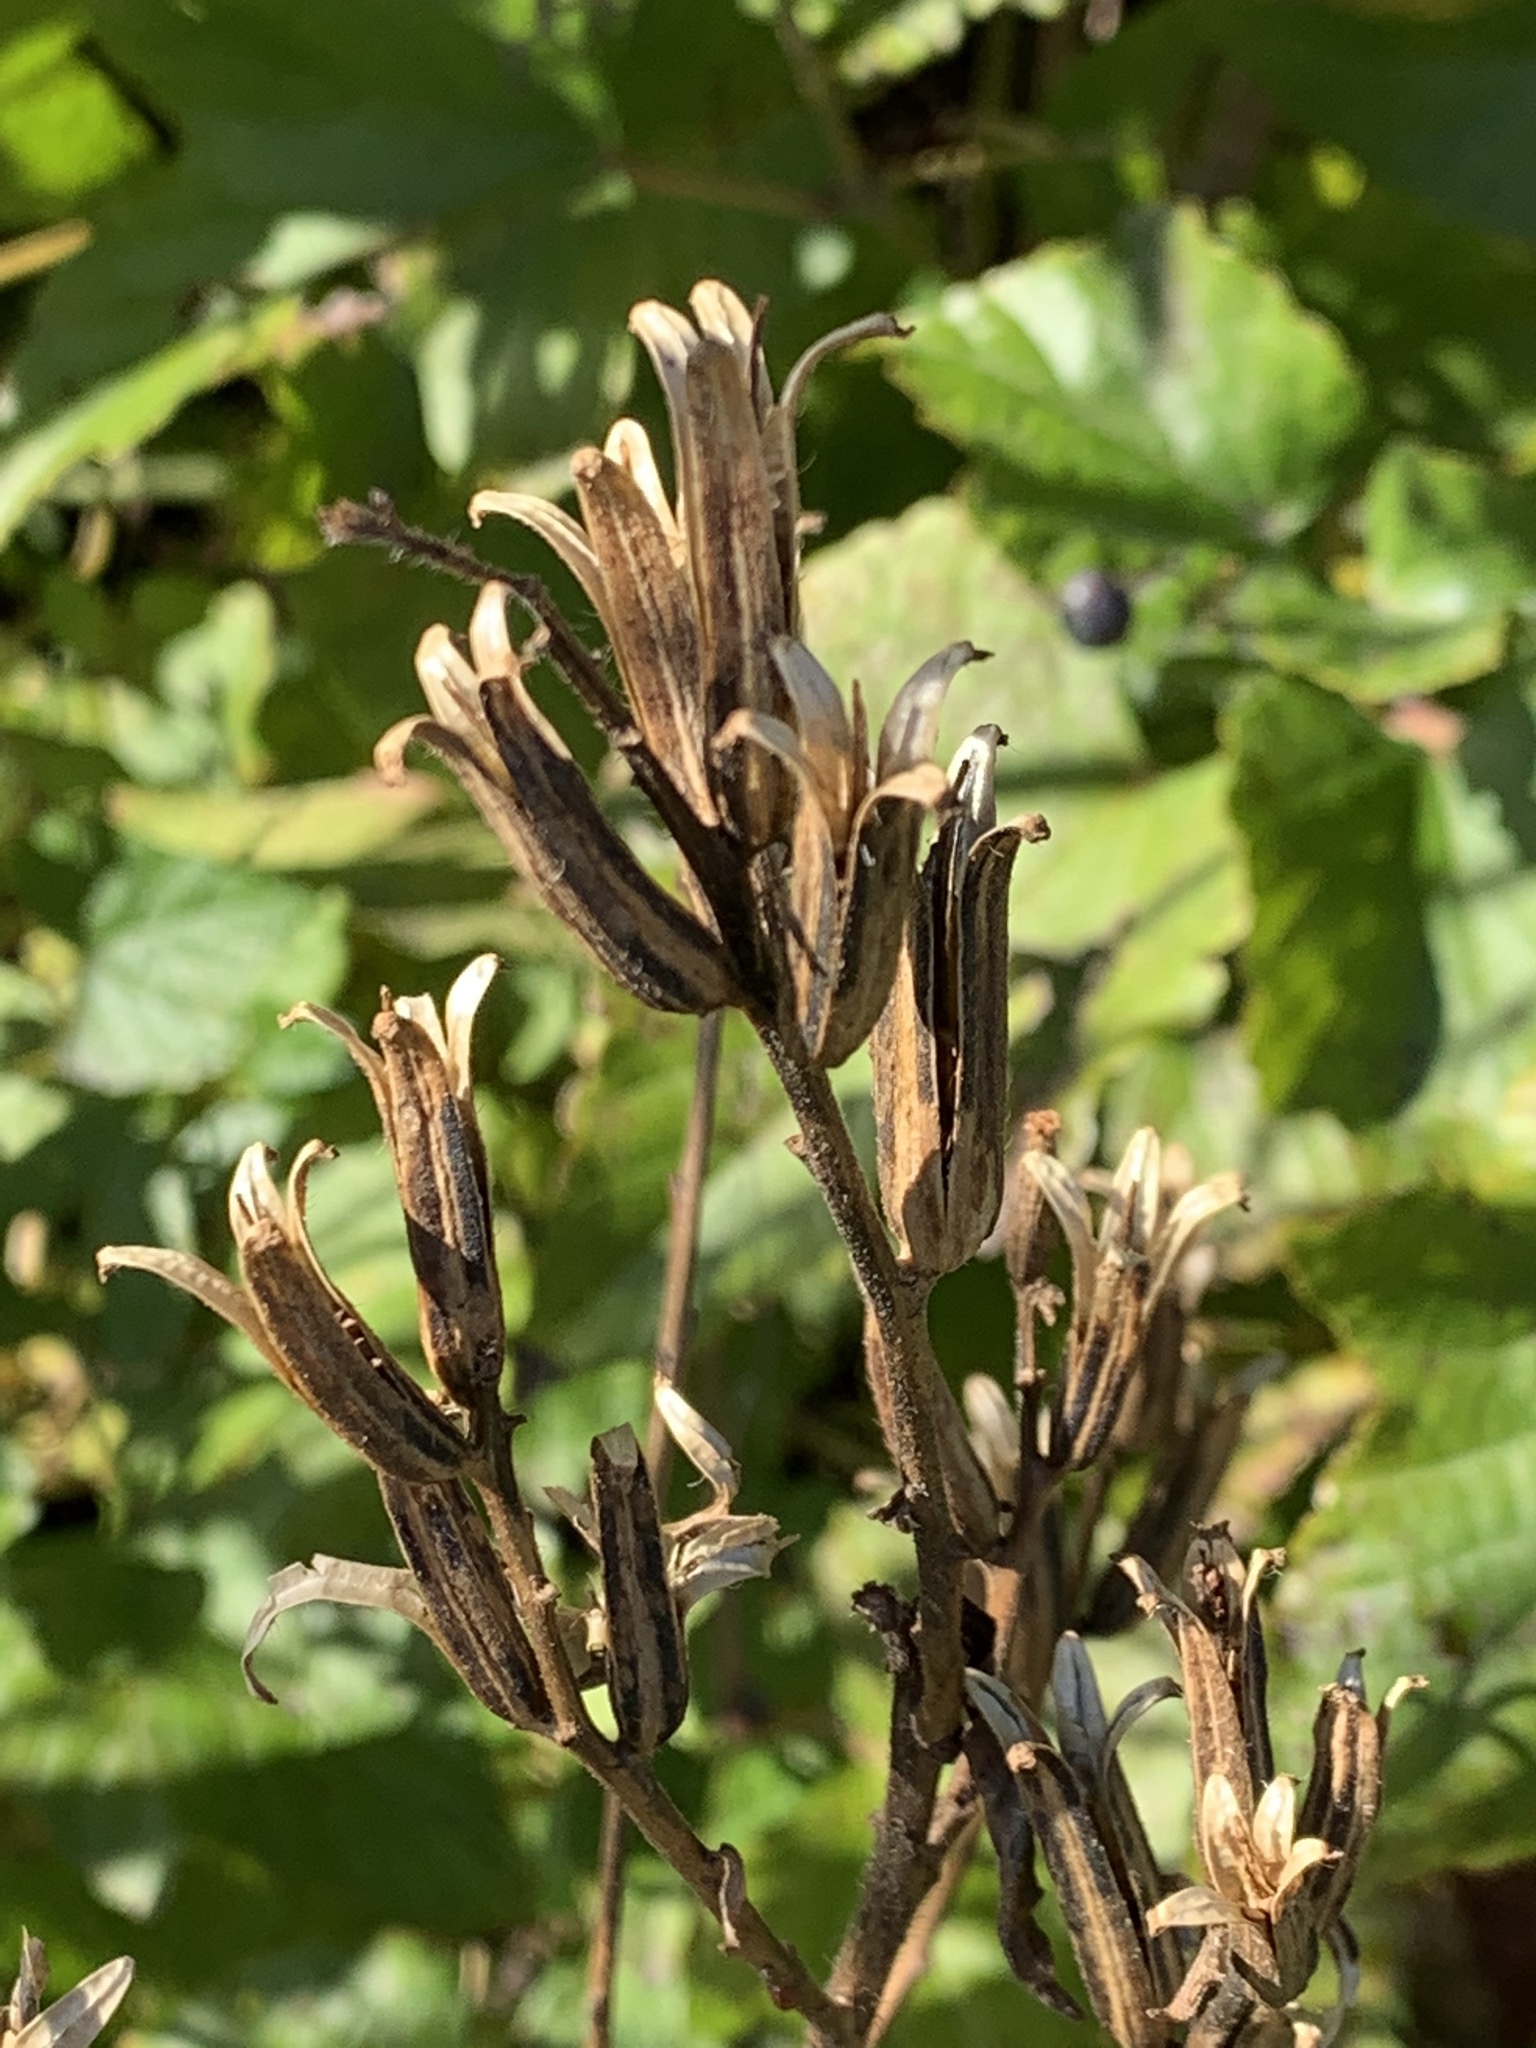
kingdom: Plantae
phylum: Tracheophyta
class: Magnoliopsida
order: Myrtales
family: Onagraceae
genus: Oenothera
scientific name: Oenothera biennis
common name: Common evening-primrose
